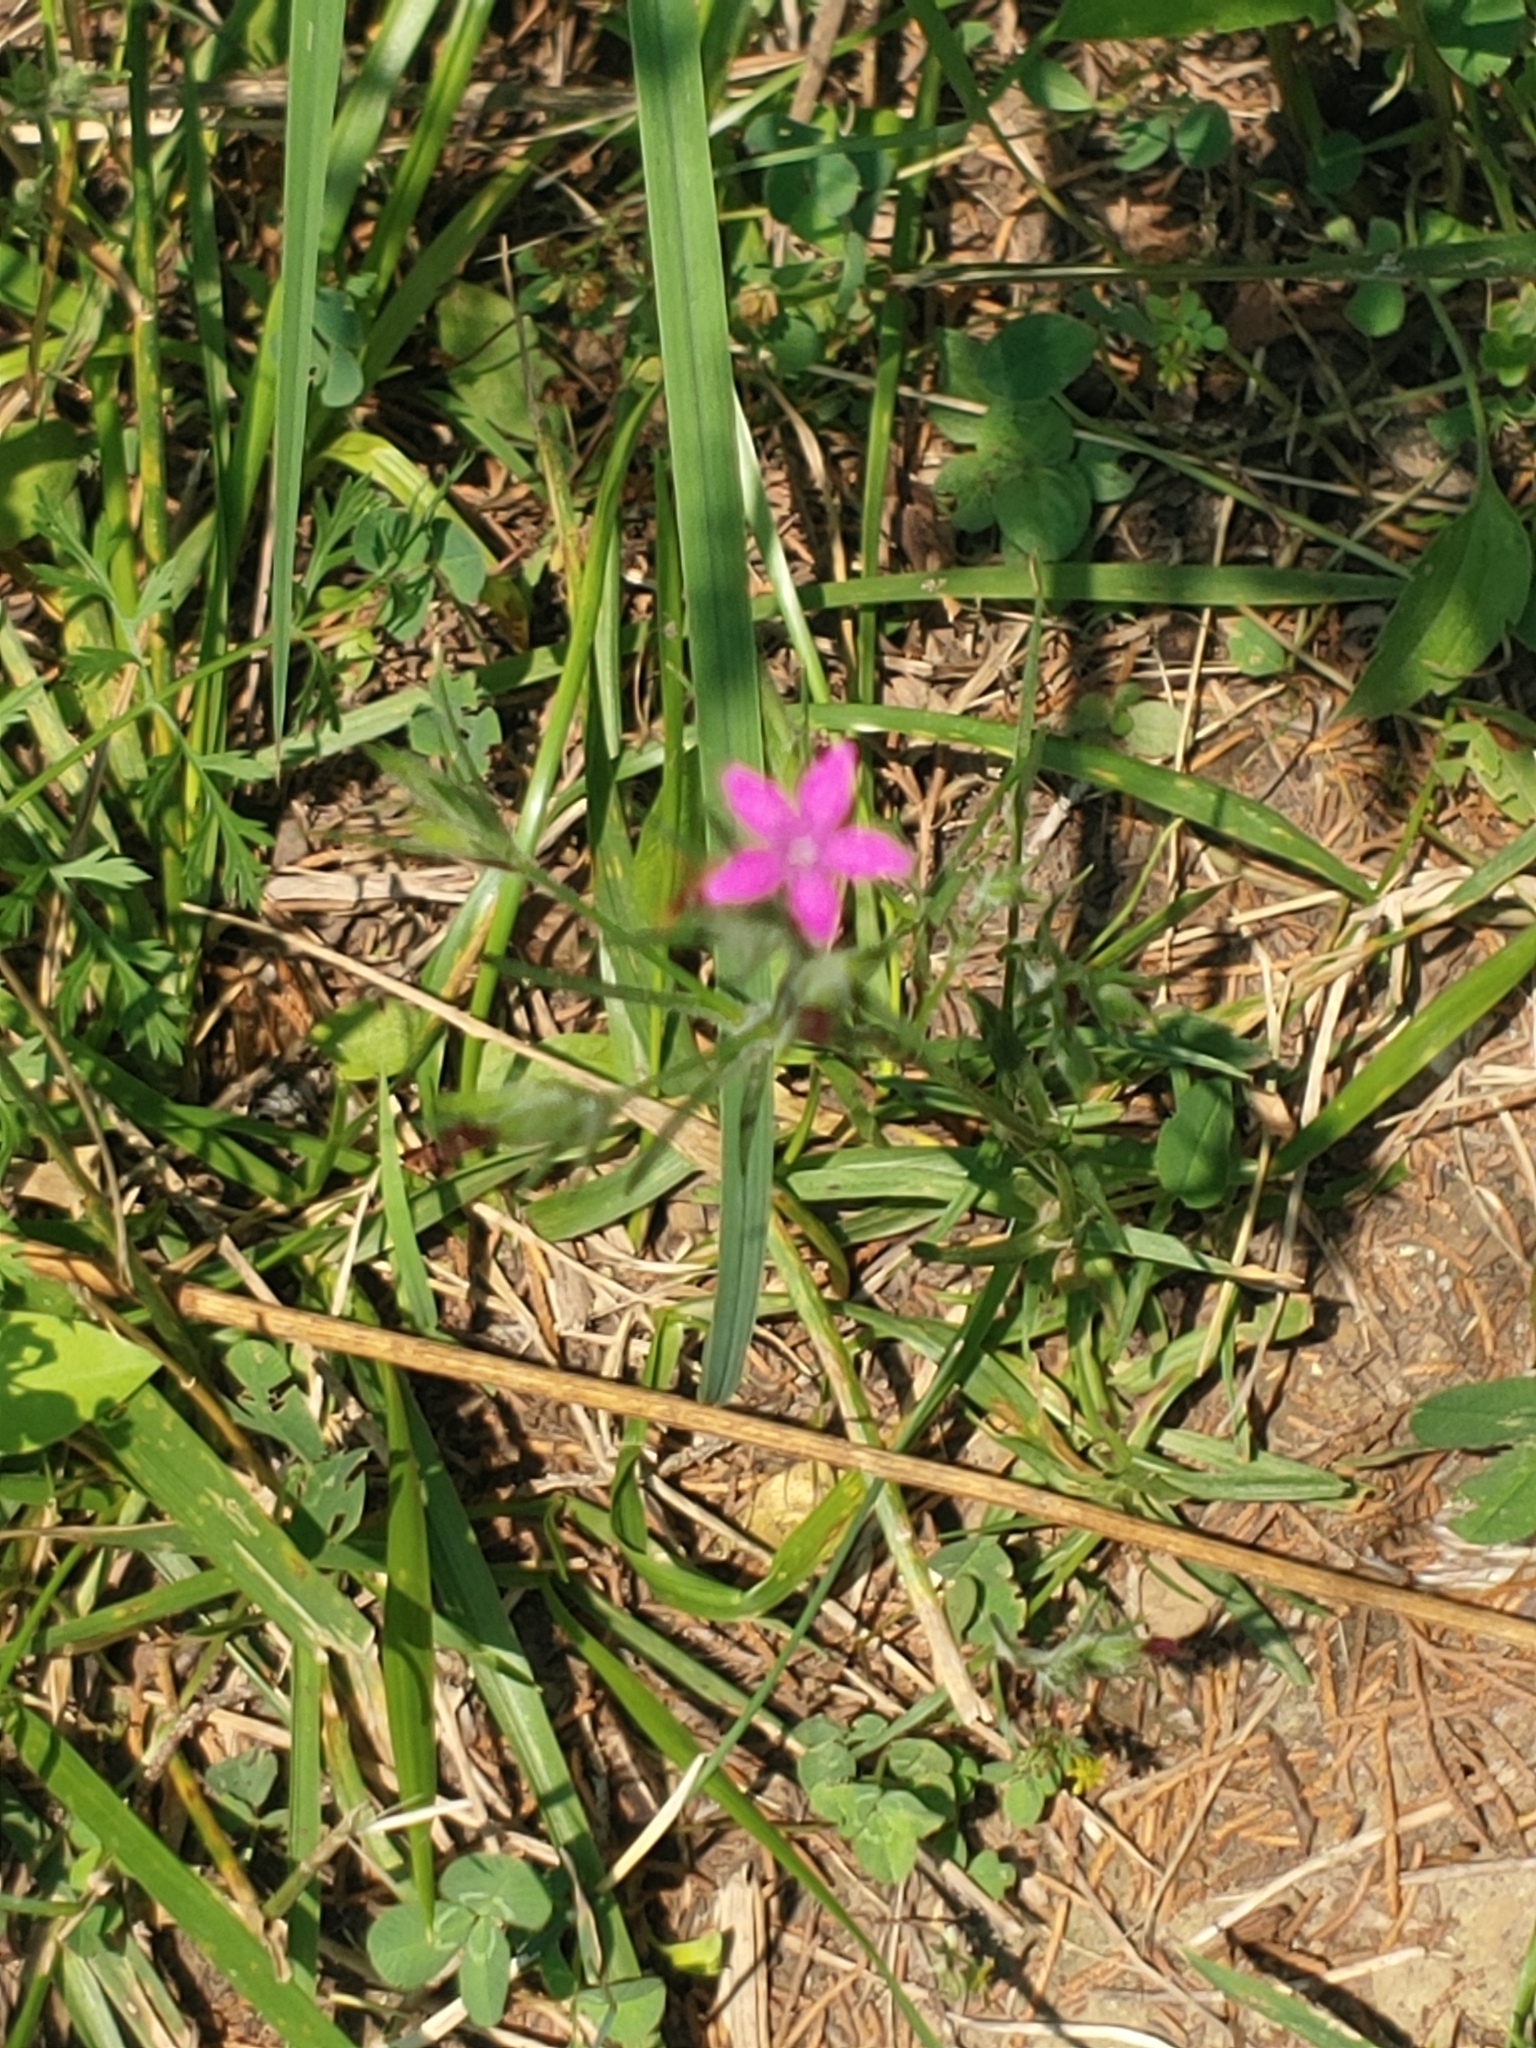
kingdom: Plantae
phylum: Tracheophyta
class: Magnoliopsida
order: Caryophyllales
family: Caryophyllaceae
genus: Dianthus
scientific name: Dianthus armeria
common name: Deptford pink
